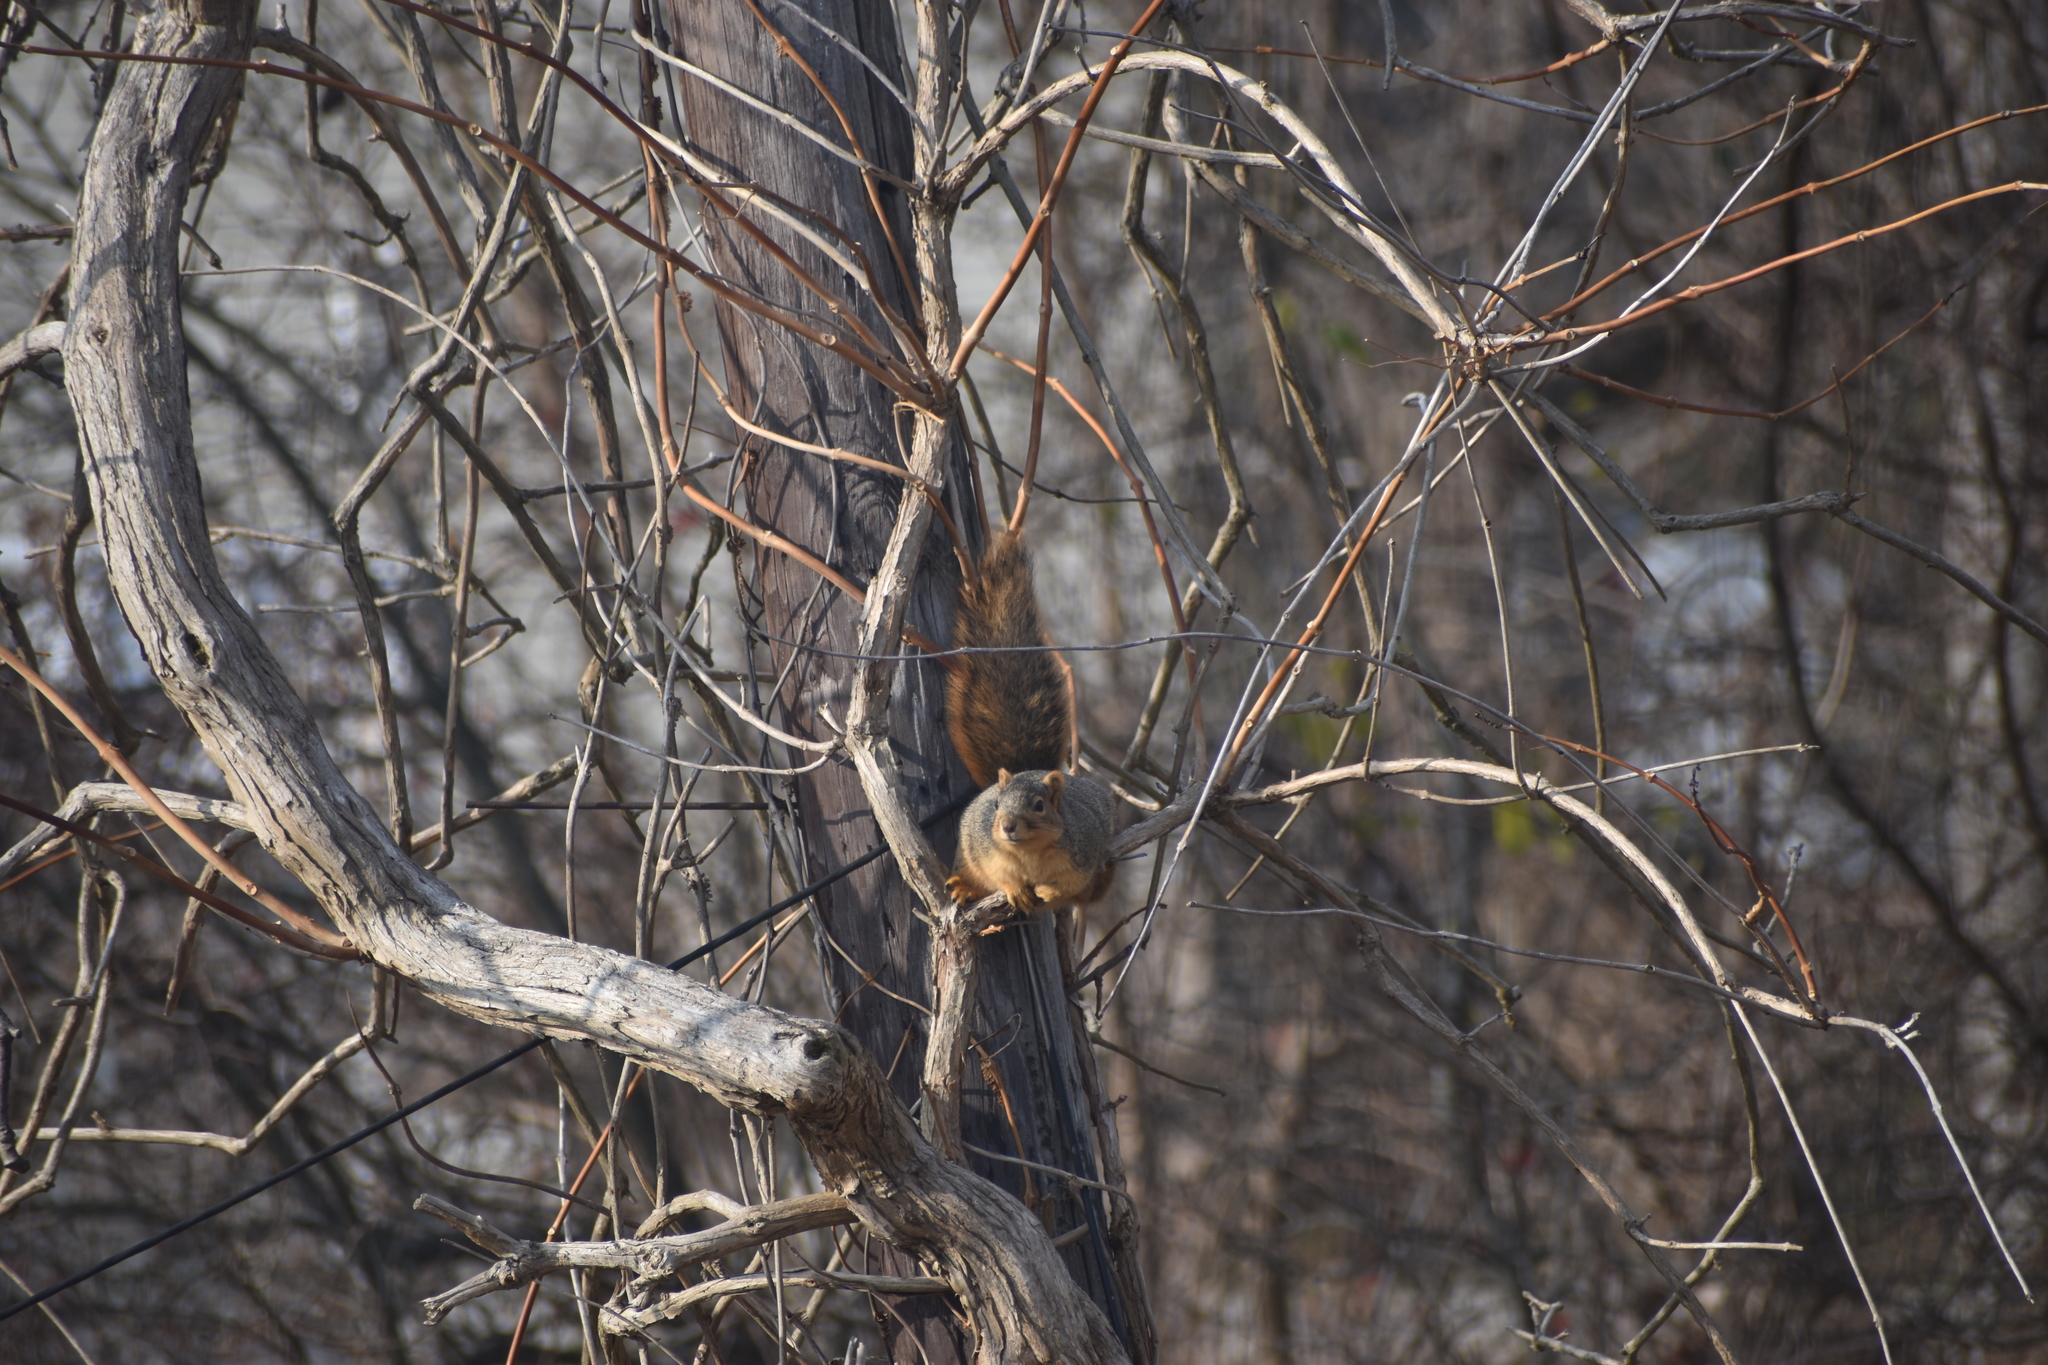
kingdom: Animalia
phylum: Chordata
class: Mammalia
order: Rodentia
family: Sciuridae
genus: Sciurus
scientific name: Sciurus niger
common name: Fox squirrel
